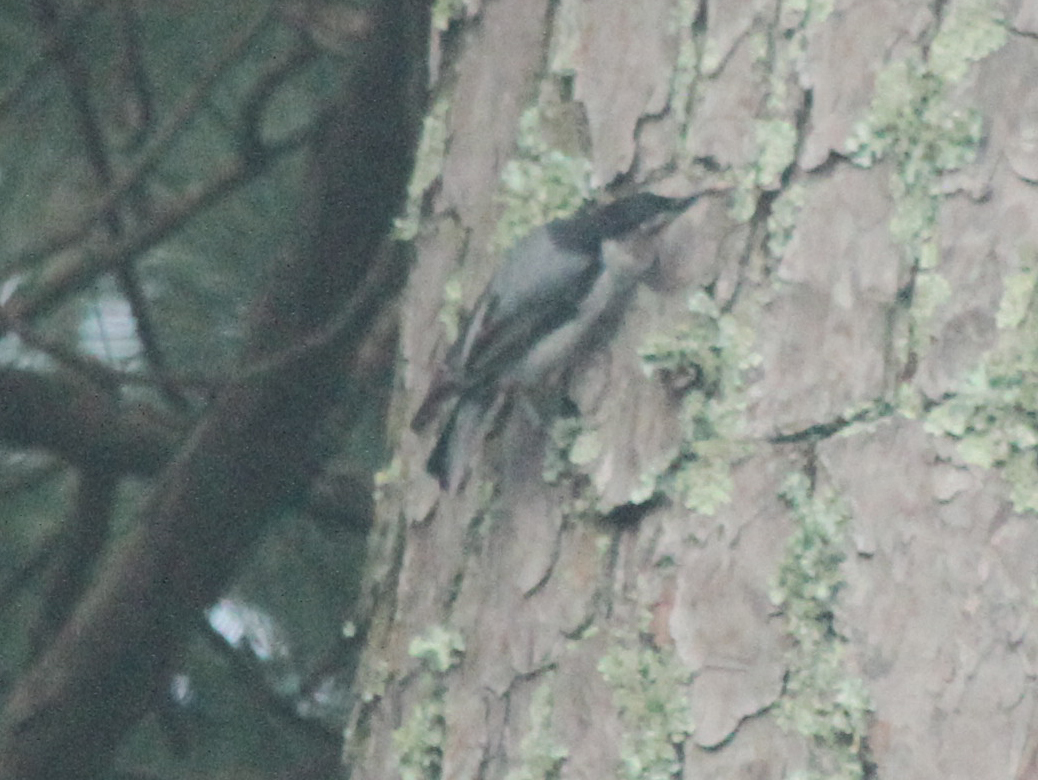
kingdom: Animalia
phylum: Chordata
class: Aves
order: Passeriformes
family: Sittidae
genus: Sitta
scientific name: Sitta carolinensis
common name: White-breasted nuthatch
